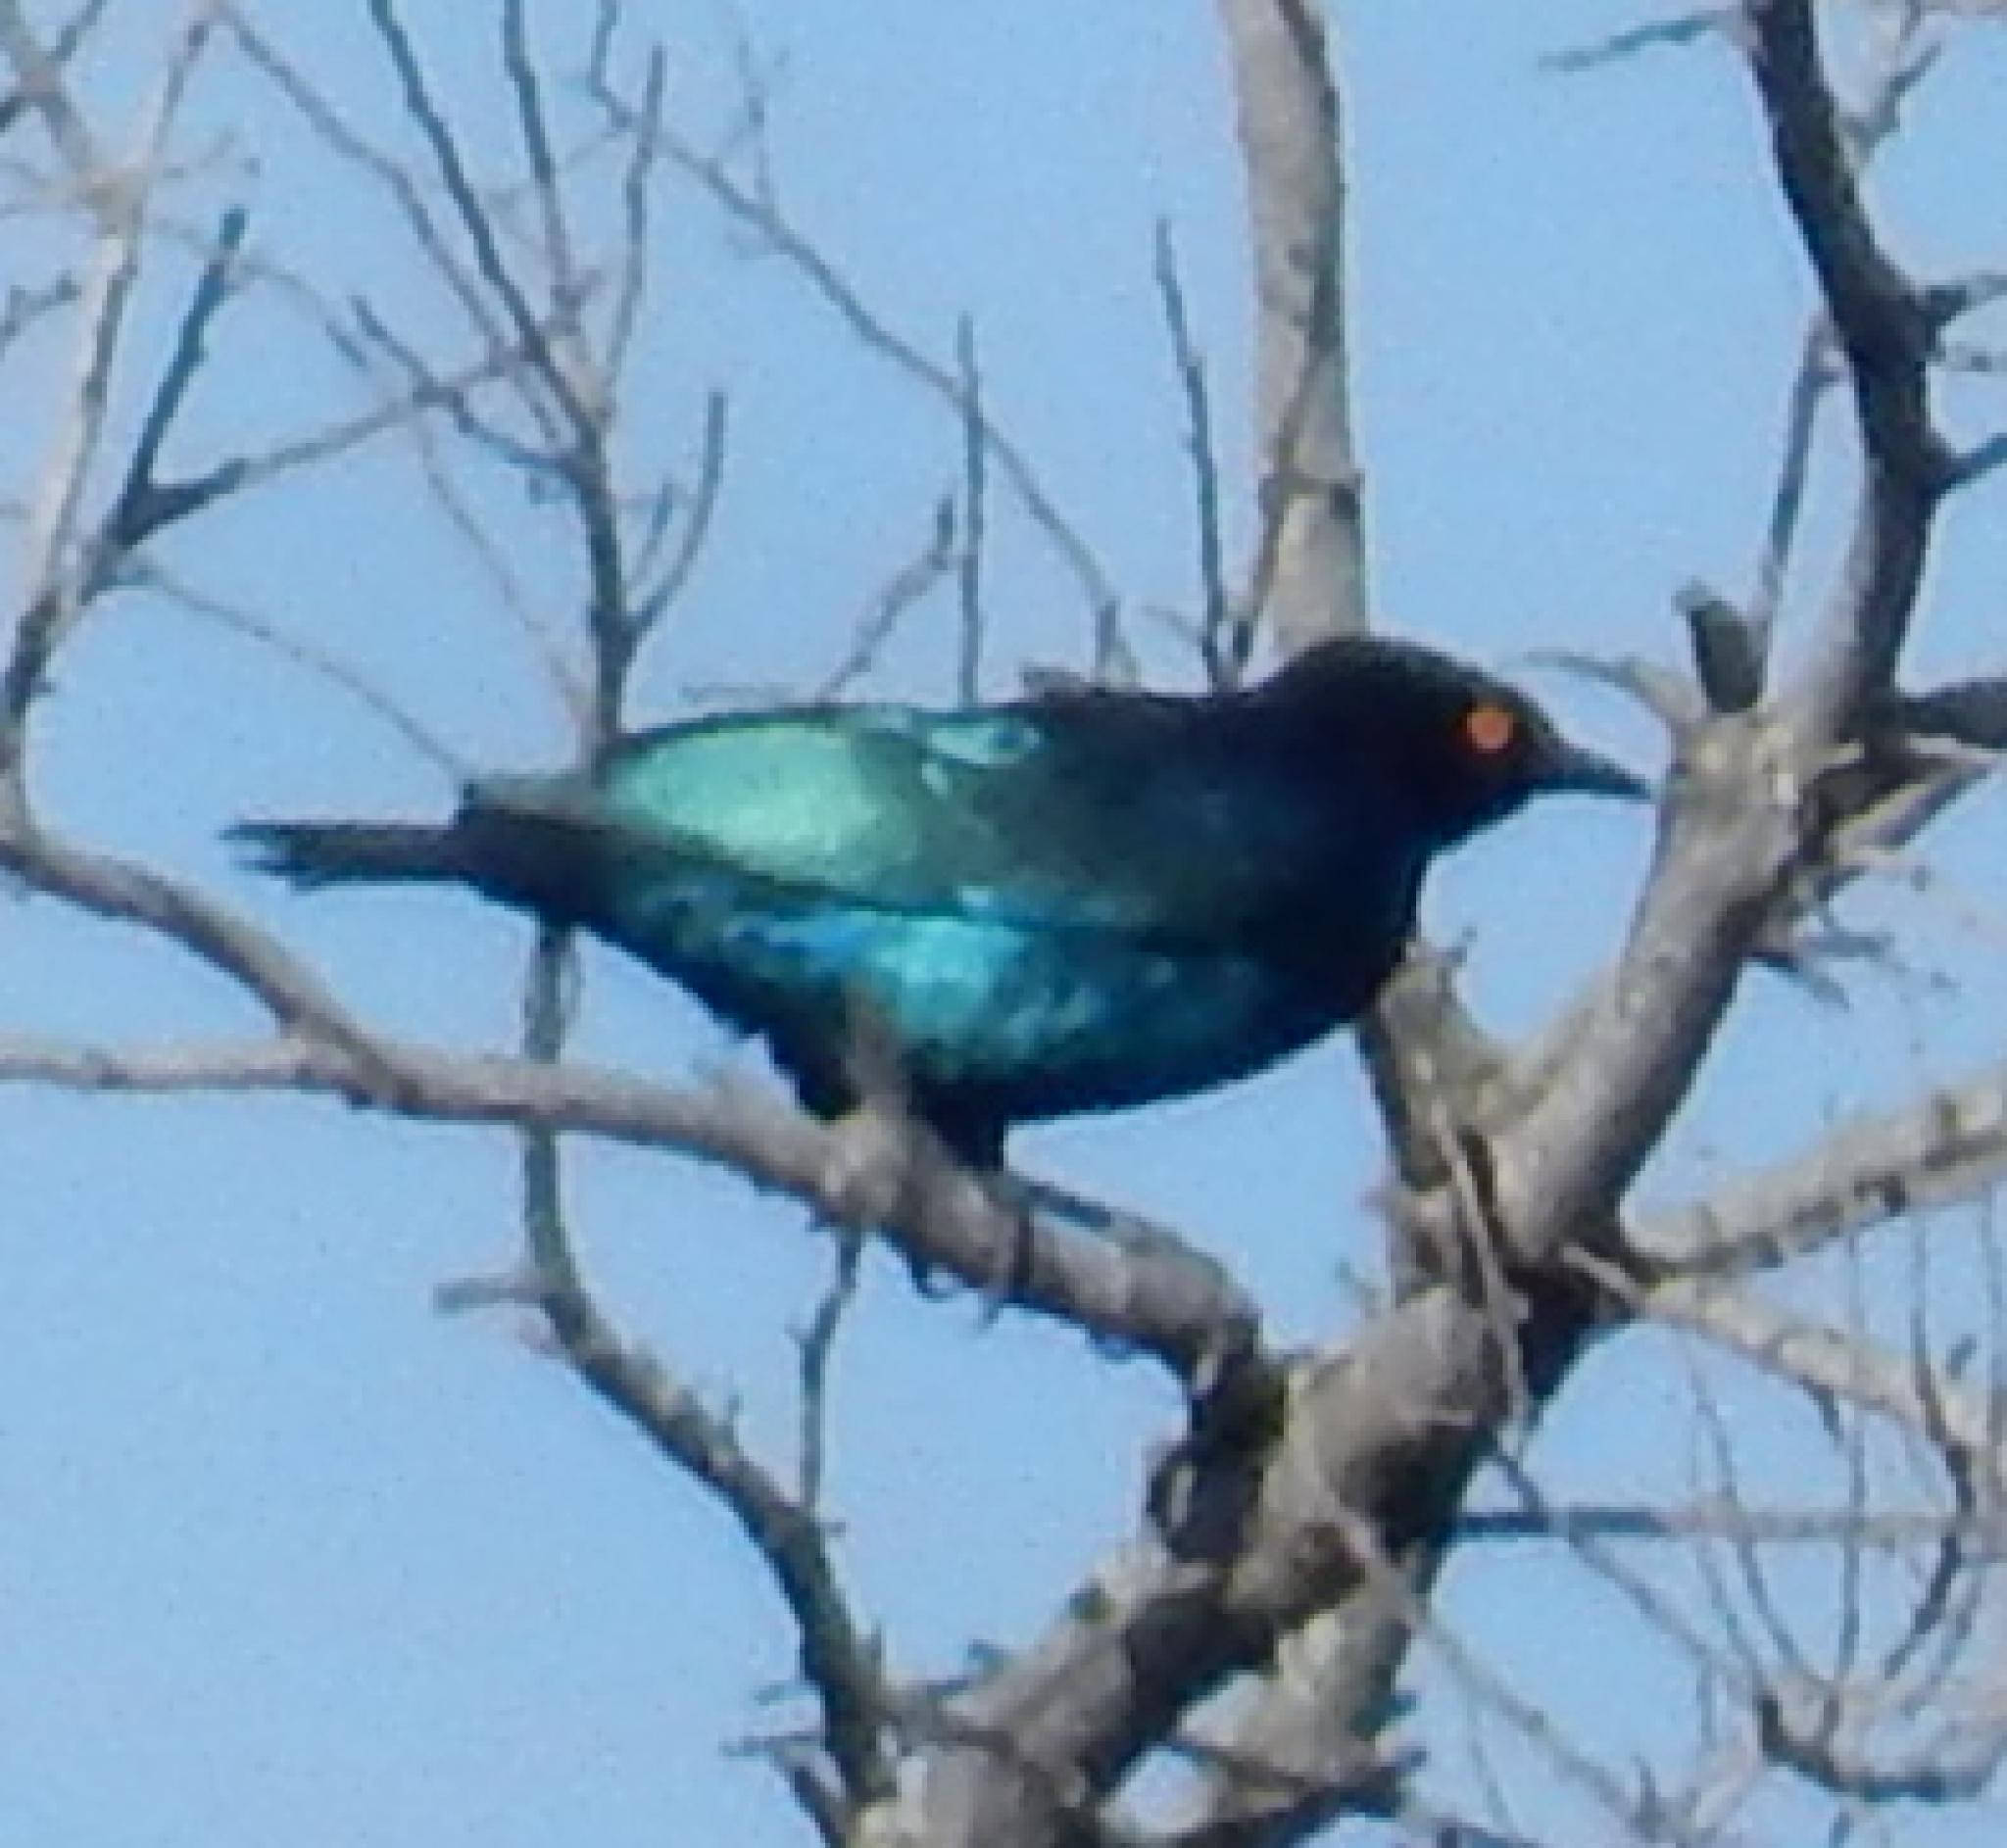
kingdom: Animalia
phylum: Chordata
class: Aves
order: Passeriformes
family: Sturnidae
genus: Lamprotornis
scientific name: Lamprotornis nitens
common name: Cape starling
